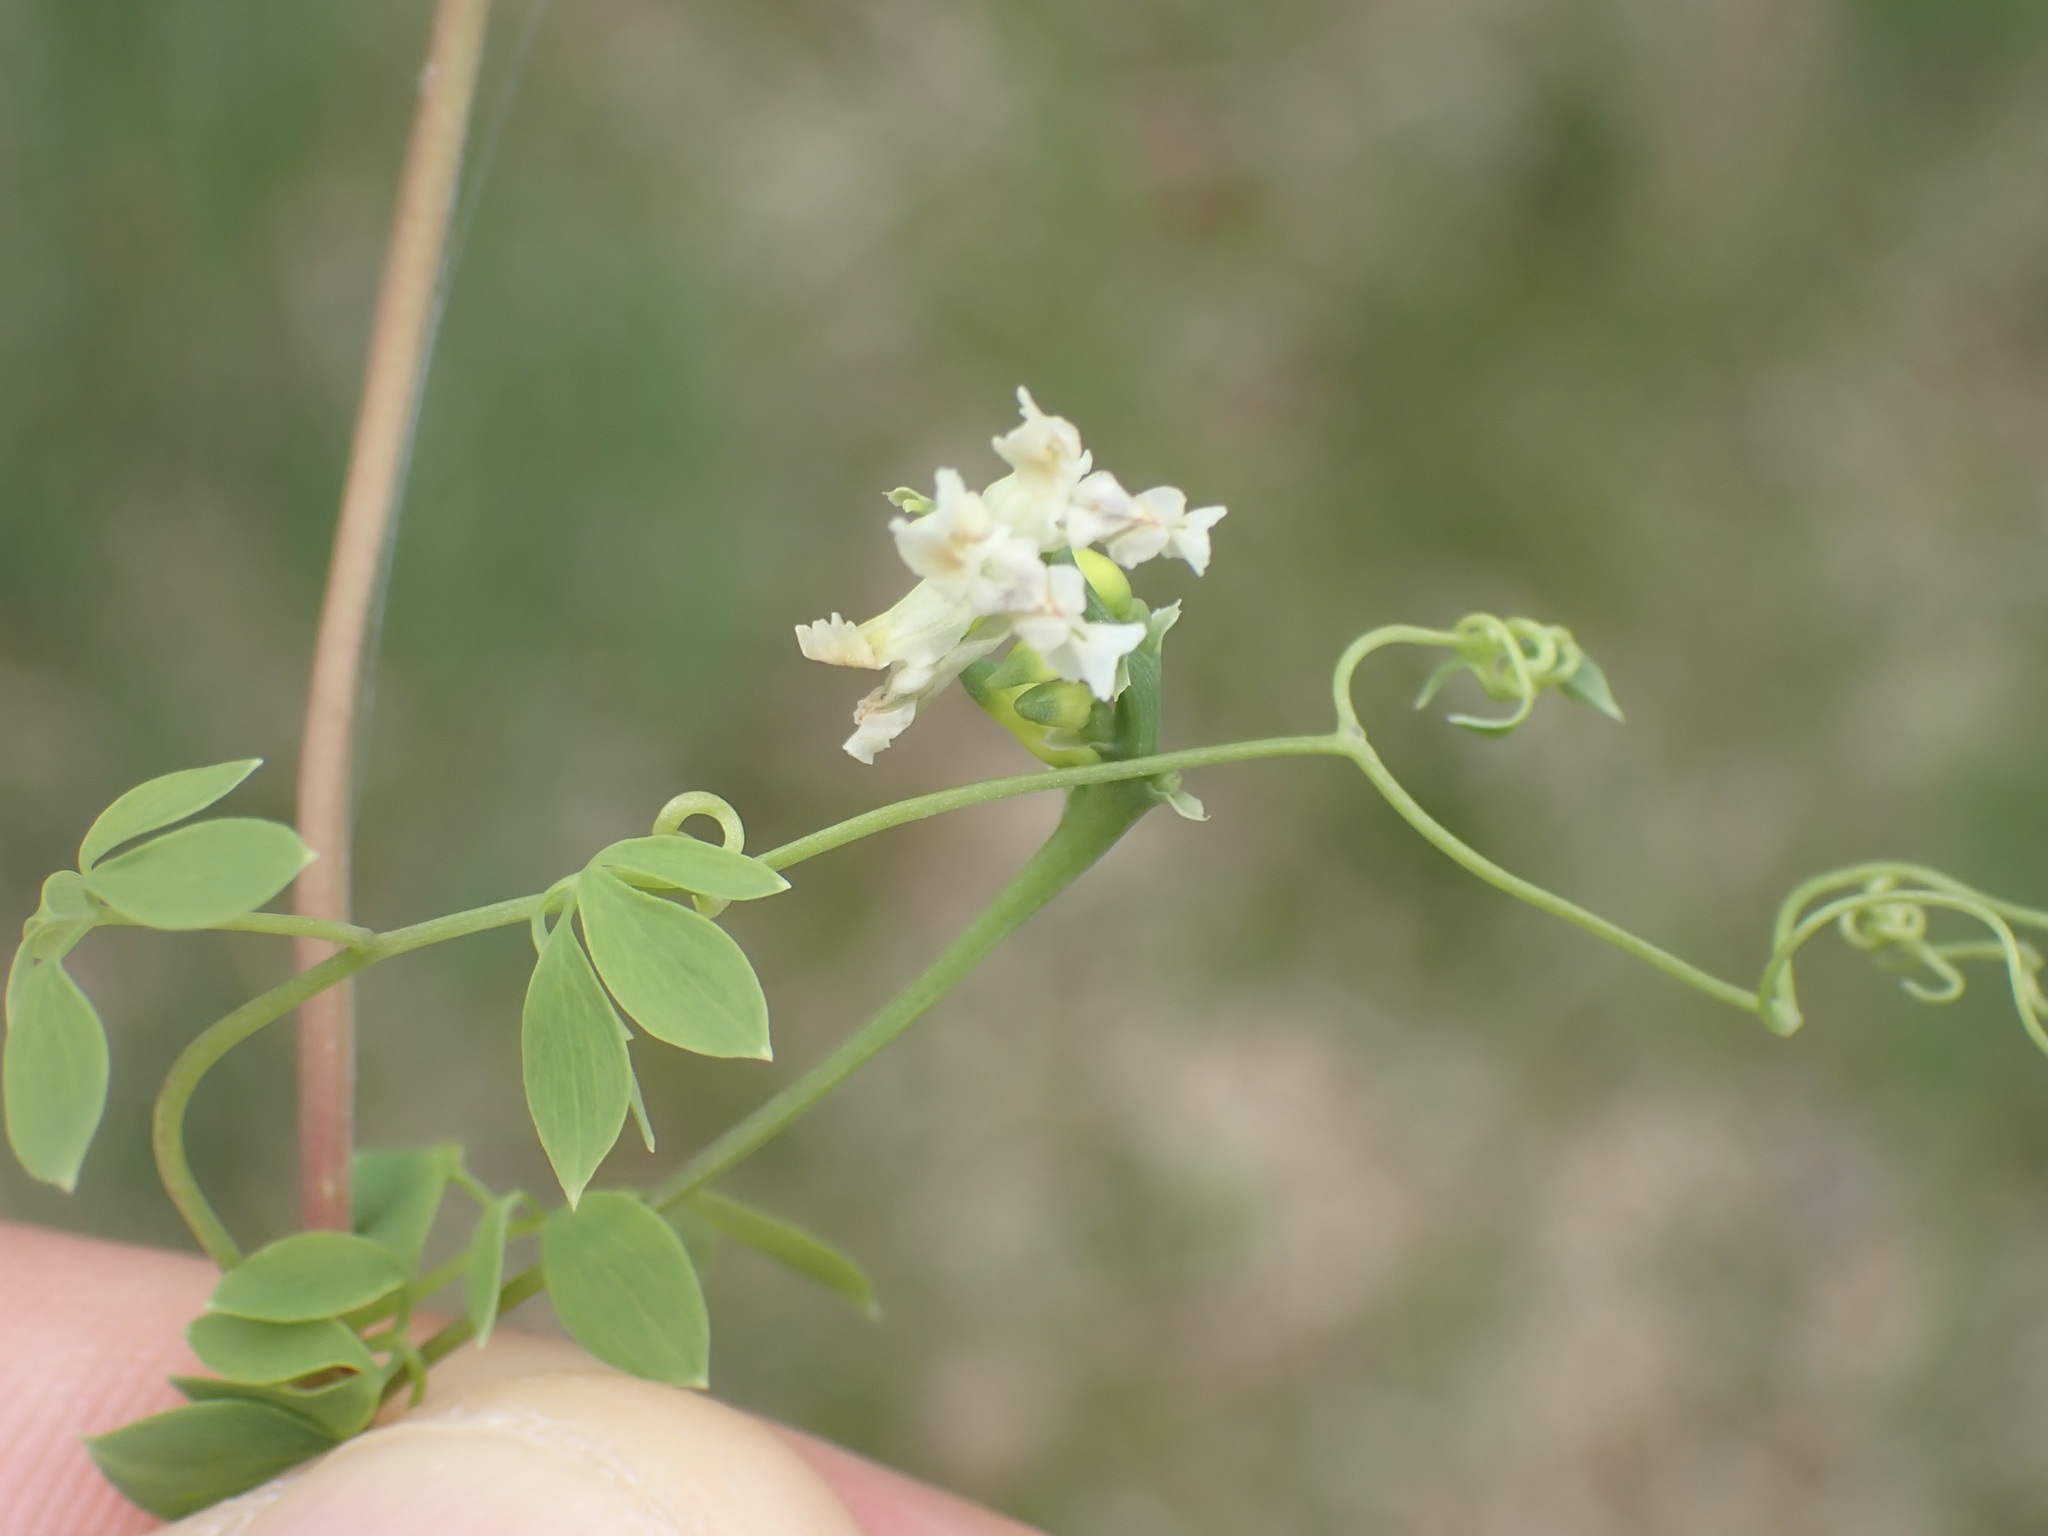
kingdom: Plantae
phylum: Tracheophyta
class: Magnoliopsida
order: Ranunculales
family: Papaveraceae
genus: Ceratocapnos
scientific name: Ceratocapnos claviculata
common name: Climbing corydalis
